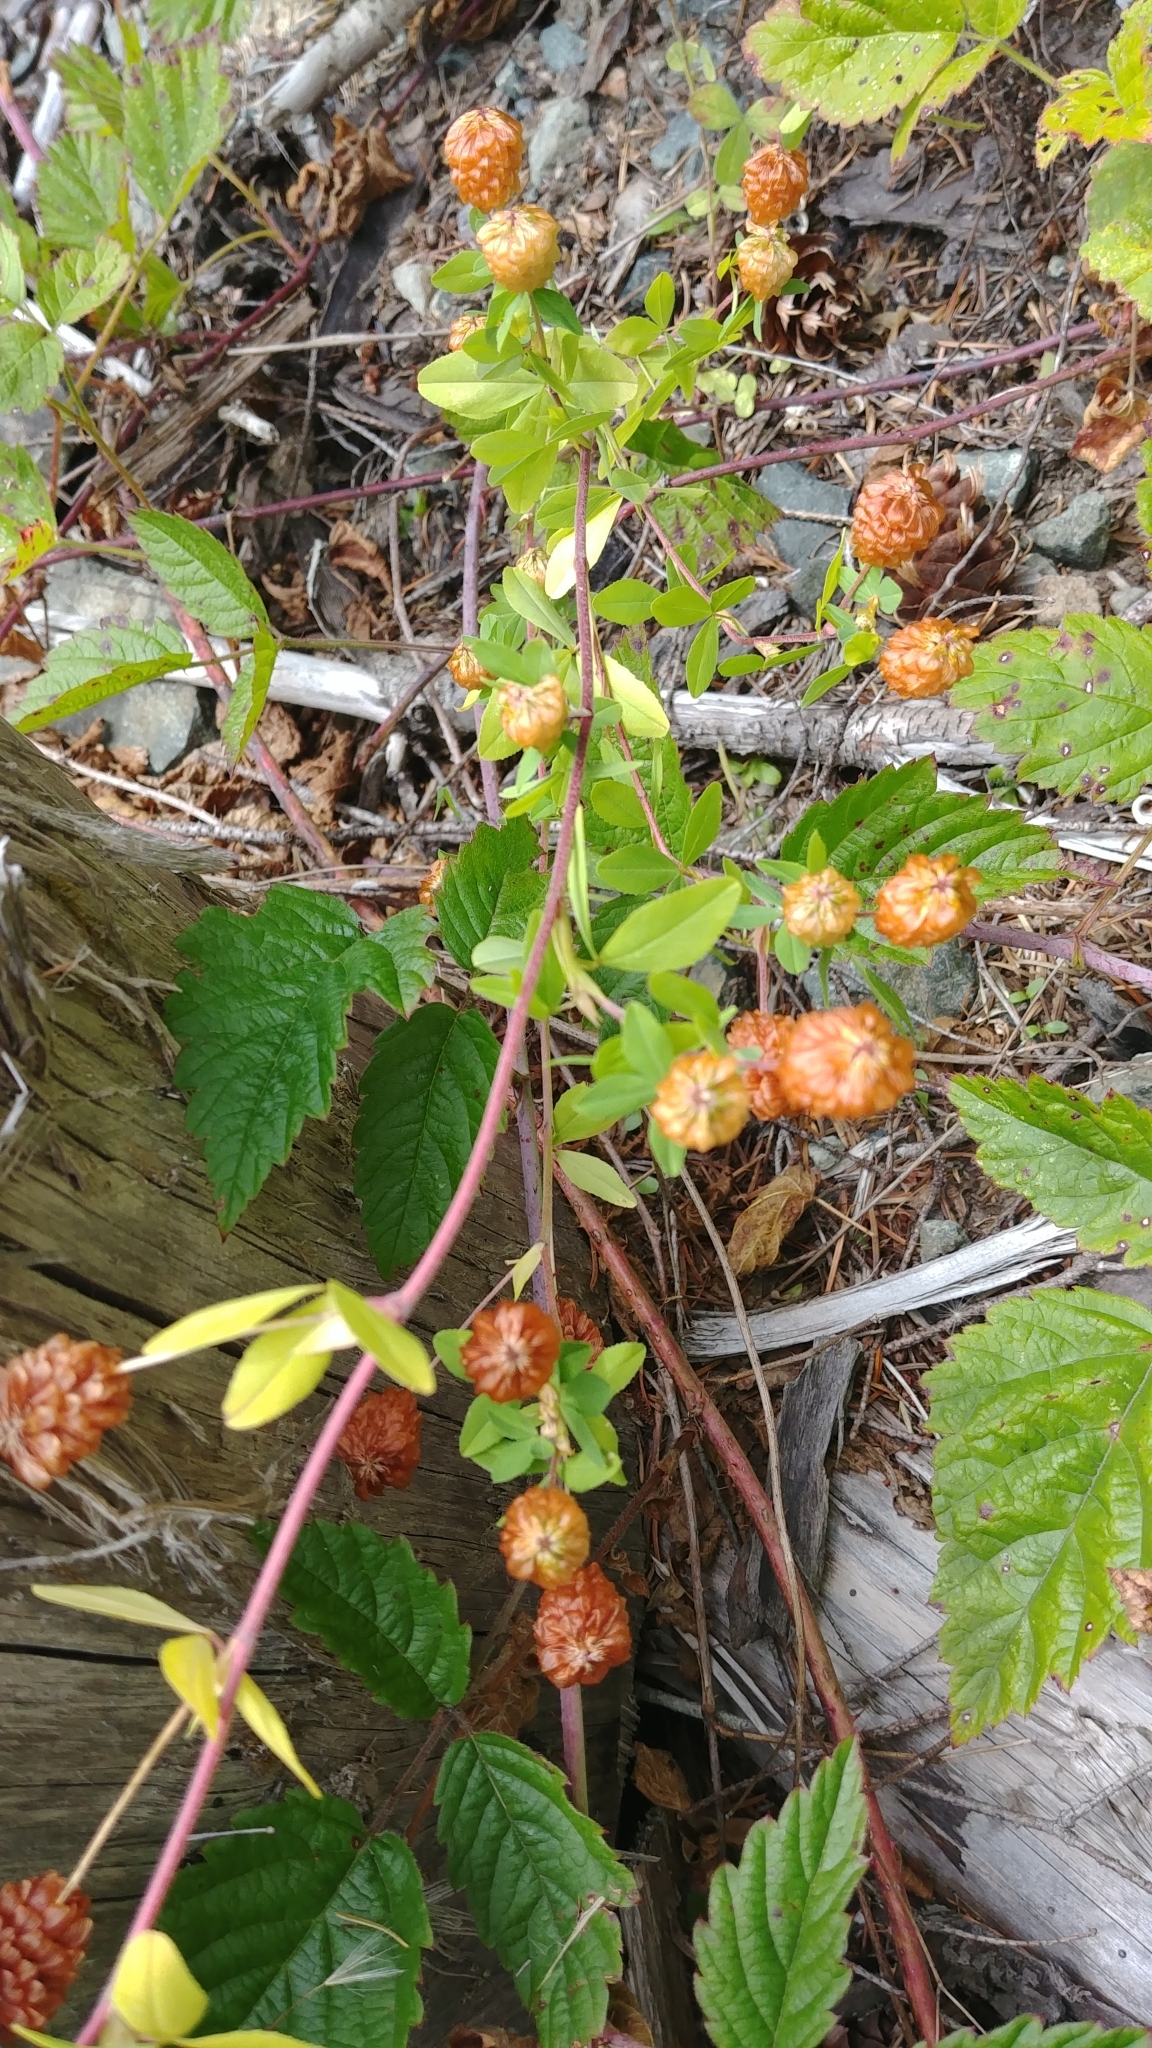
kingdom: Plantae
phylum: Tracheophyta
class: Magnoliopsida
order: Fabales
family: Fabaceae
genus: Trifolium
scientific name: Trifolium aureum
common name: Golden clover
